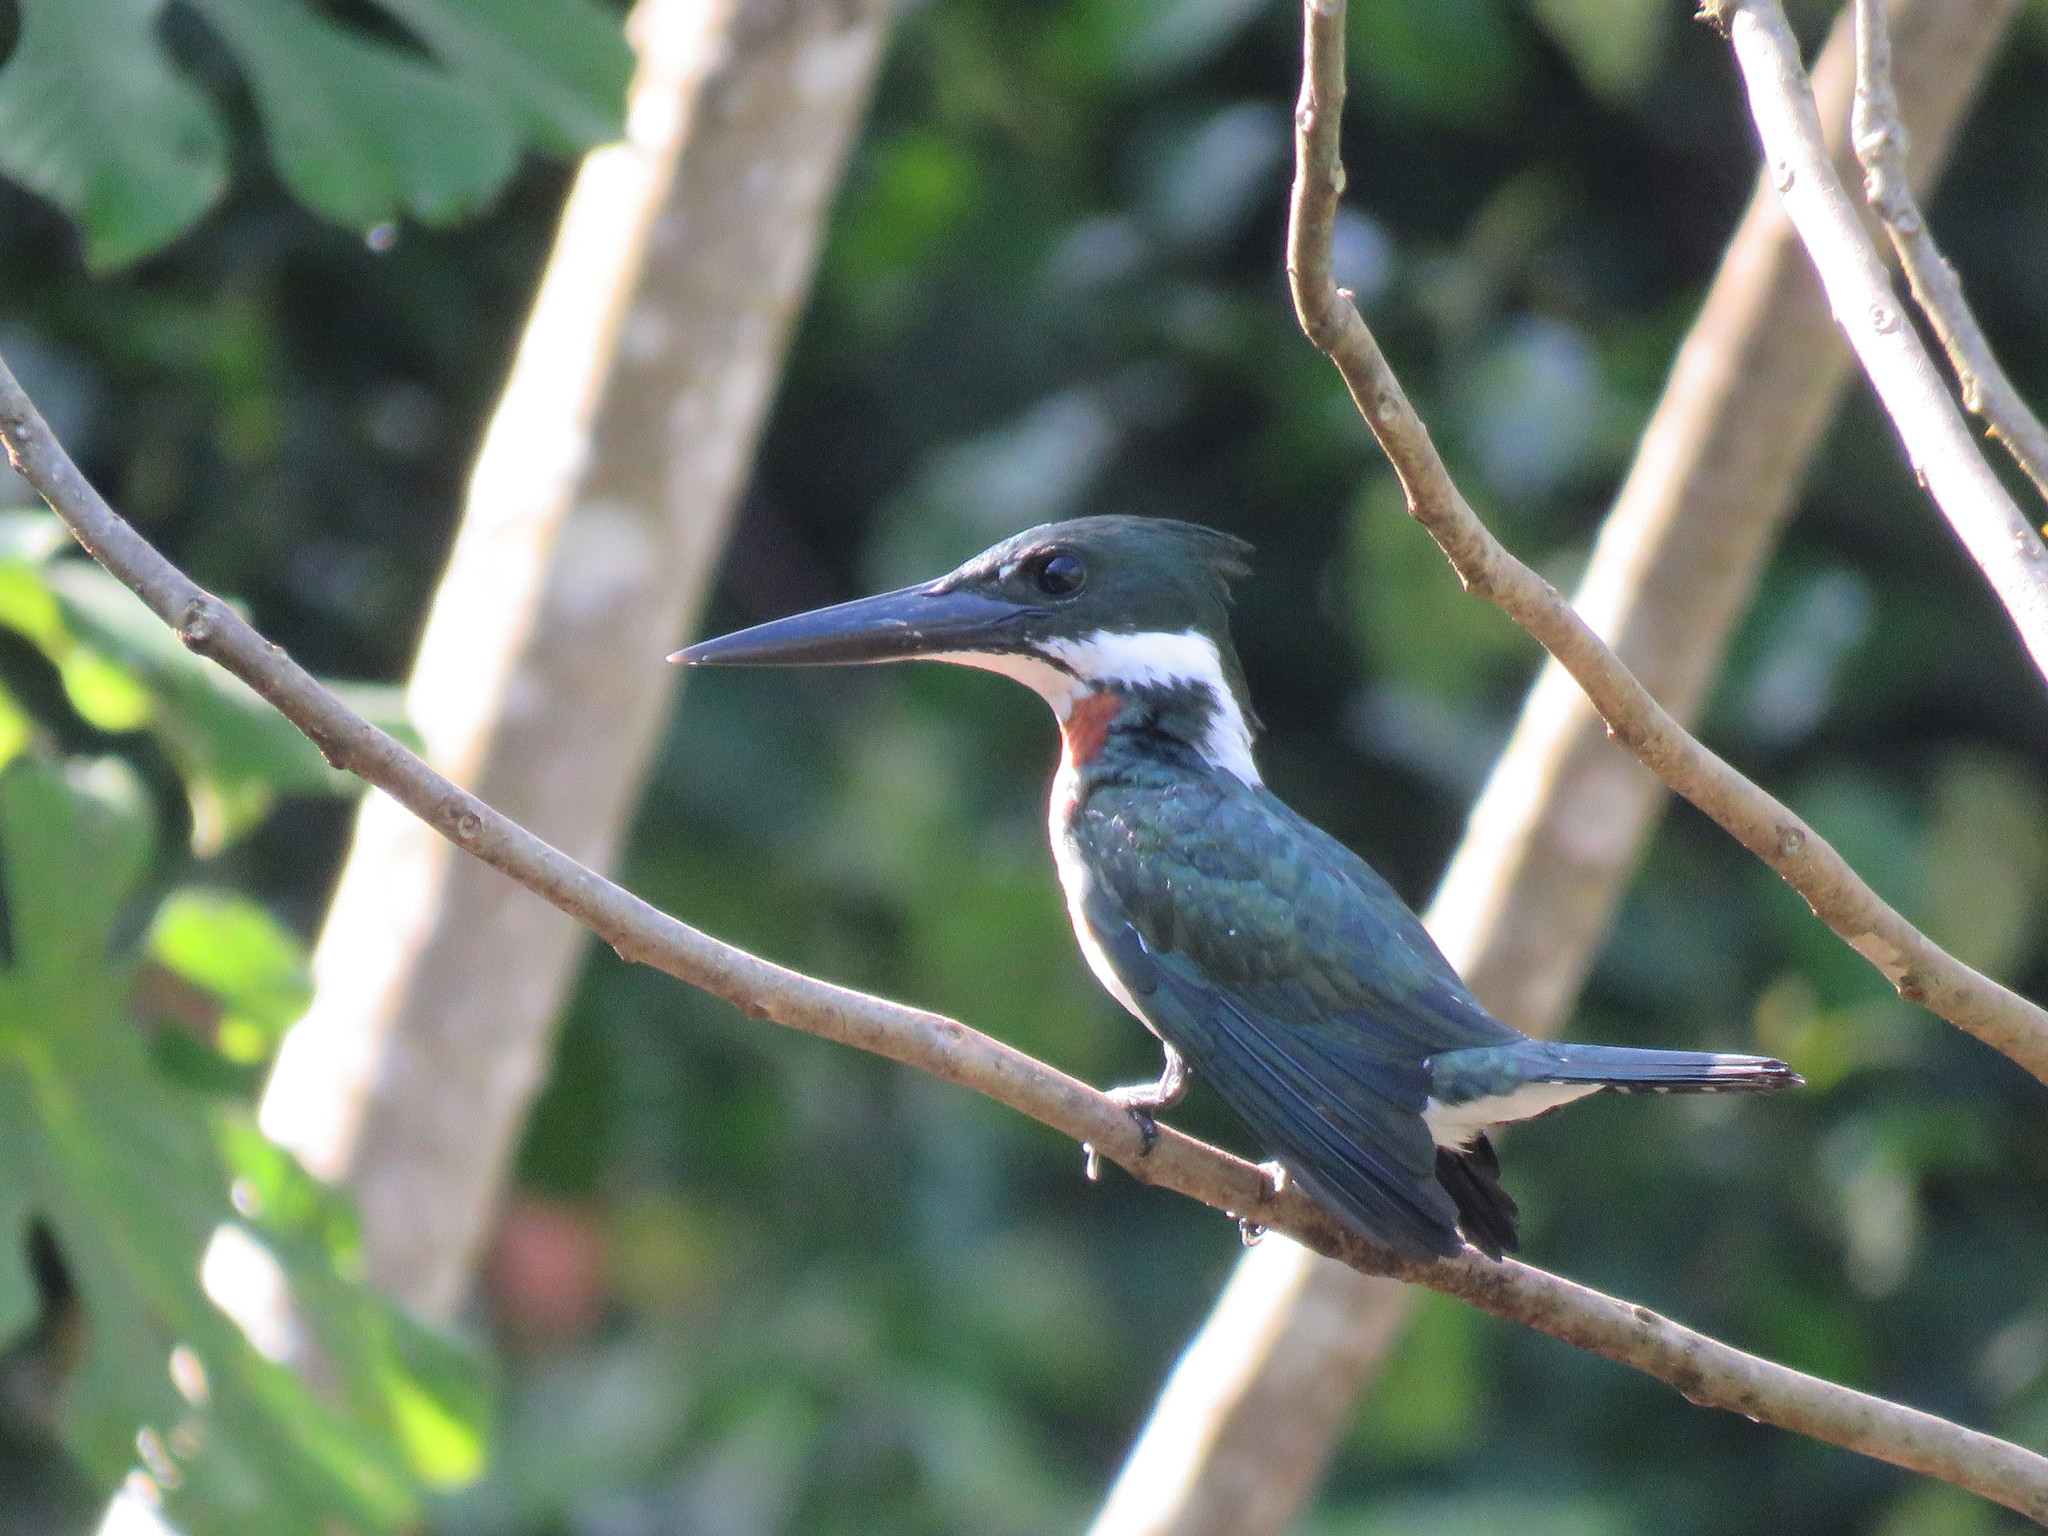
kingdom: Animalia
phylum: Chordata
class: Aves
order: Coraciiformes
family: Alcedinidae
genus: Chloroceryle
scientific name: Chloroceryle amazona
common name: Amazon kingfisher
